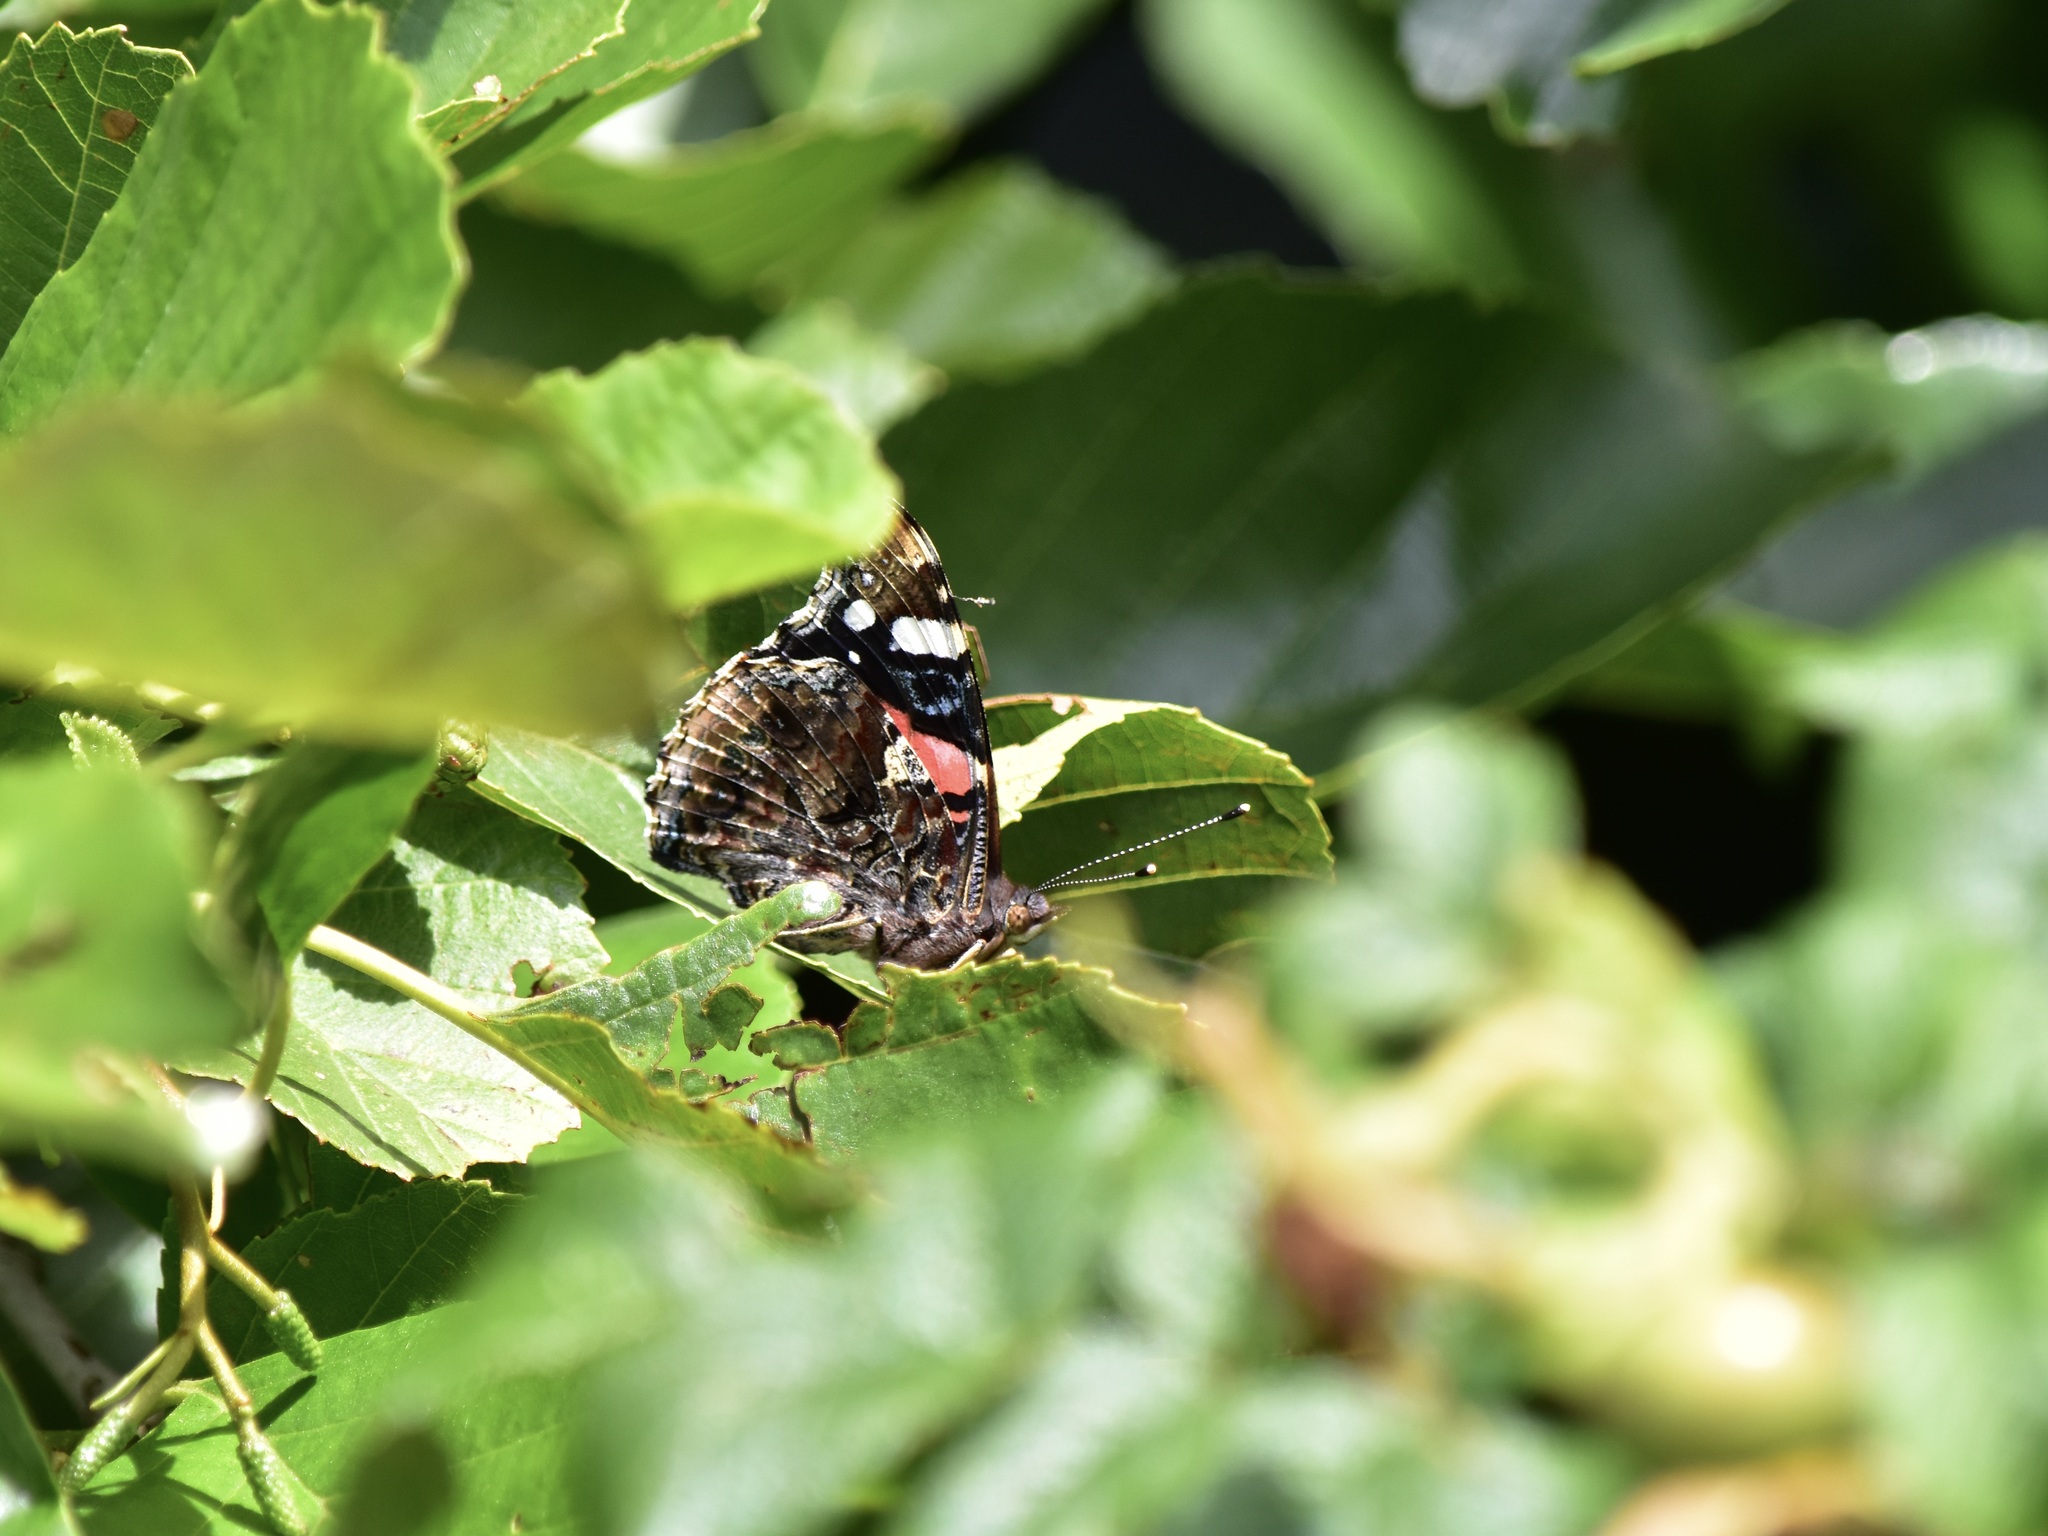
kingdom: Animalia
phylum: Arthropoda
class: Insecta
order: Lepidoptera
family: Nymphalidae
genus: Vanessa
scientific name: Vanessa atalanta
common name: Red admiral
